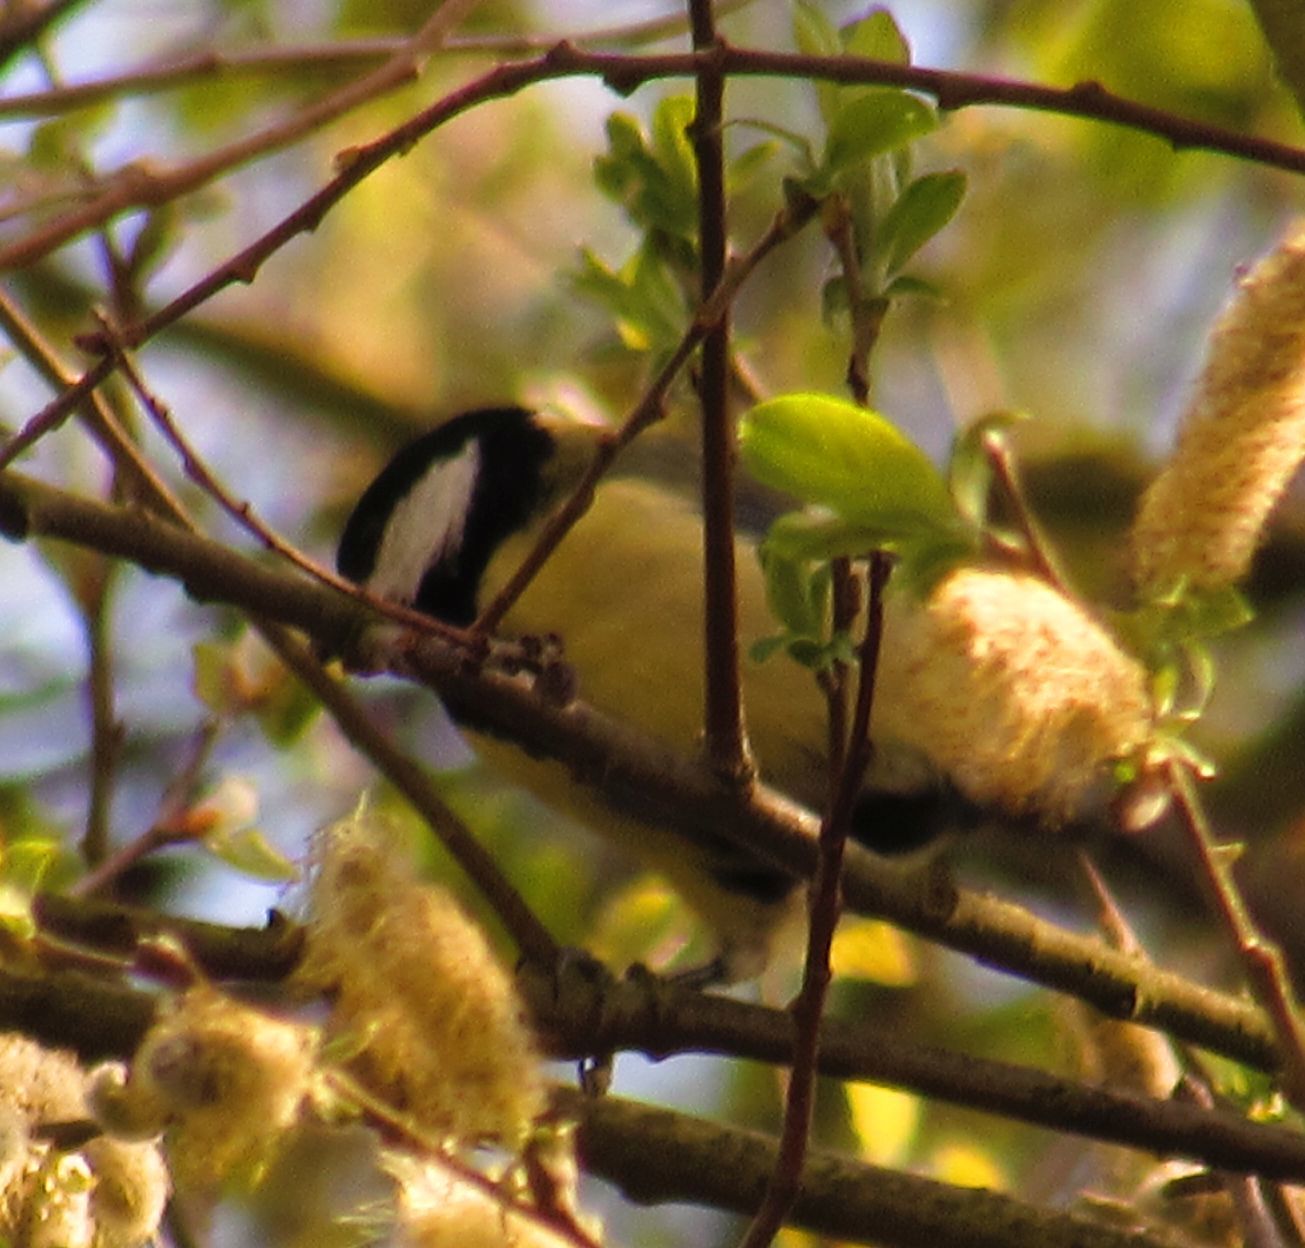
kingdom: Animalia
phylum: Chordata
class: Aves
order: Passeriformes
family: Paridae
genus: Parus
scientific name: Parus major
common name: Great tit
